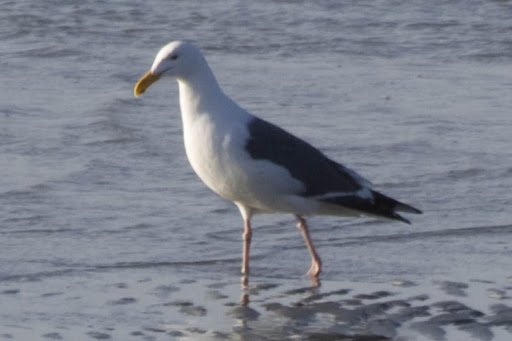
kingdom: Animalia
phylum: Chordata
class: Aves
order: Charadriiformes
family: Laridae
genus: Larus
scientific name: Larus occidentalis
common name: Western gull
